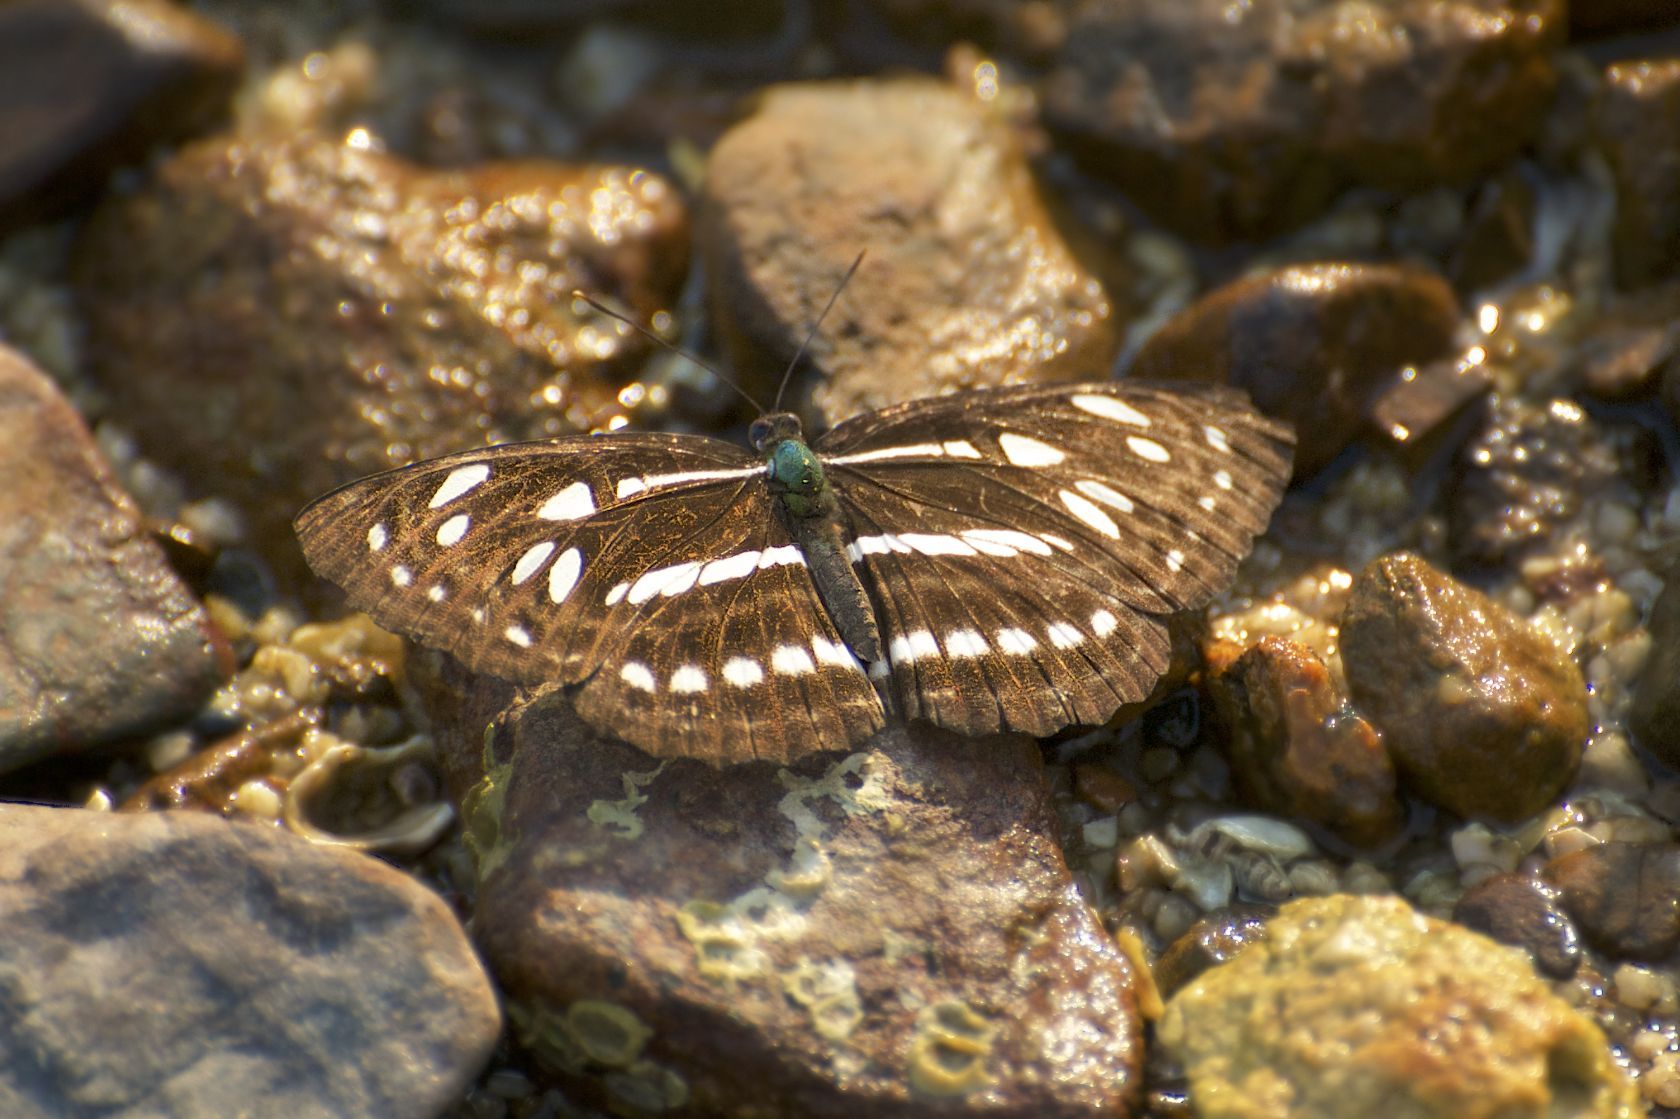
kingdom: Animalia
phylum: Arthropoda
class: Insecta
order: Lepidoptera
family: Nymphalidae
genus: Phaedyma
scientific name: Phaedyma columella
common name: Short banded sailer
